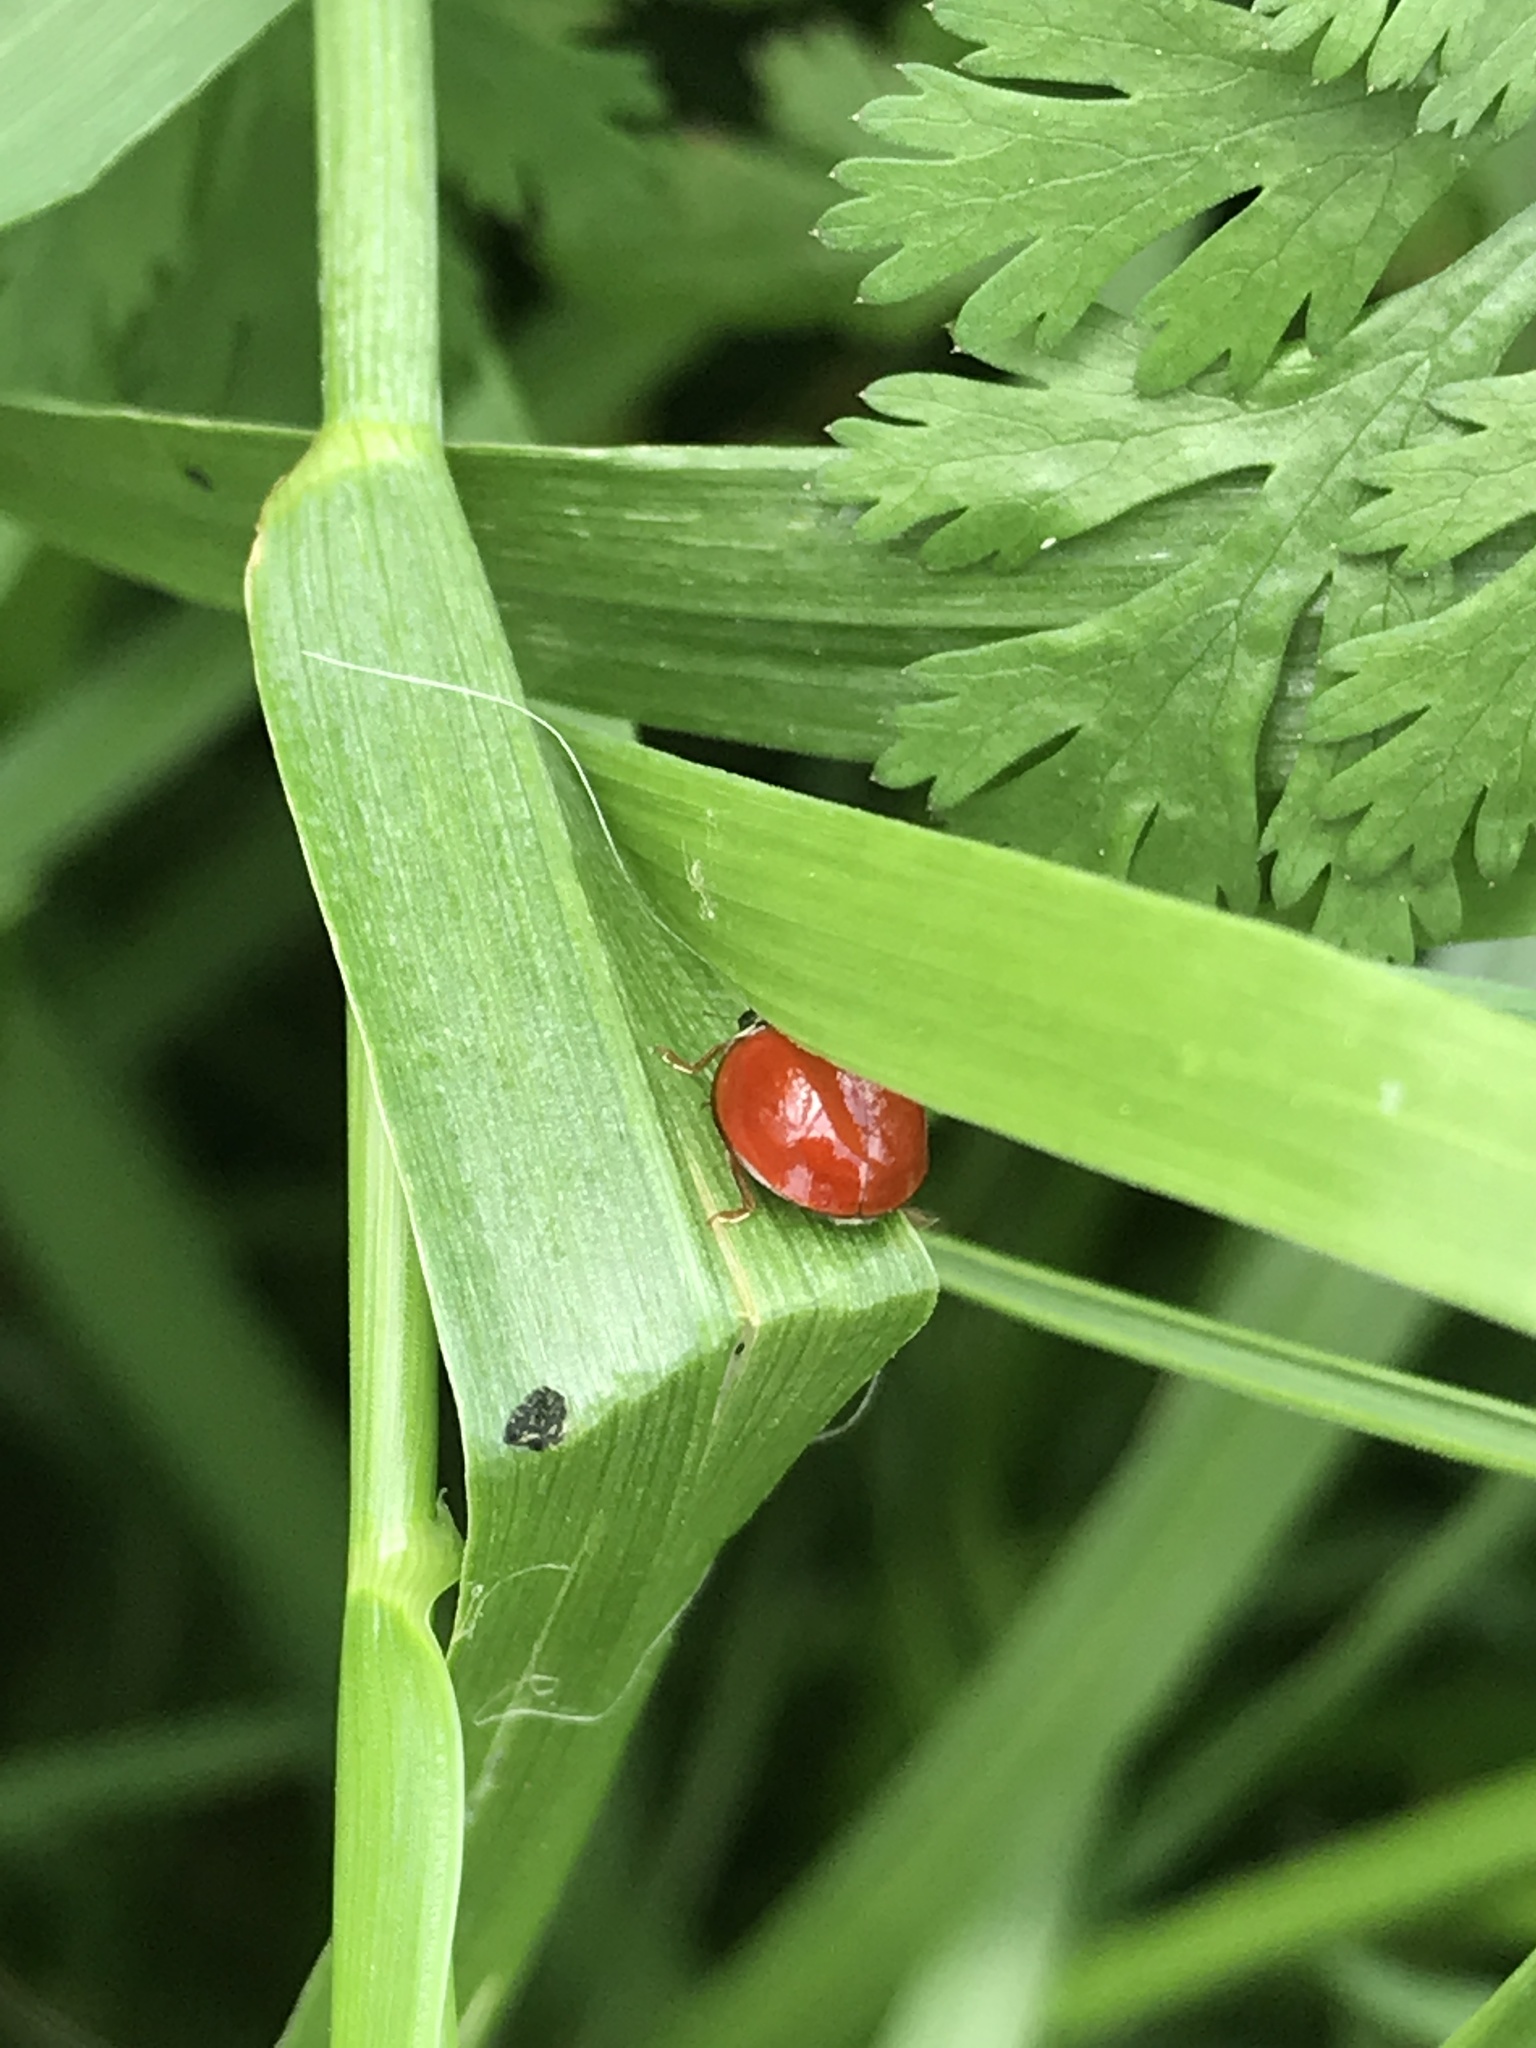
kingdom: Animalia
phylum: Arthropoda
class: Insecta
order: Coleoptera
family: Coccinellidae
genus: Cycloneda
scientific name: Cycloneda sanguinea
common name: Ladybird beetle
